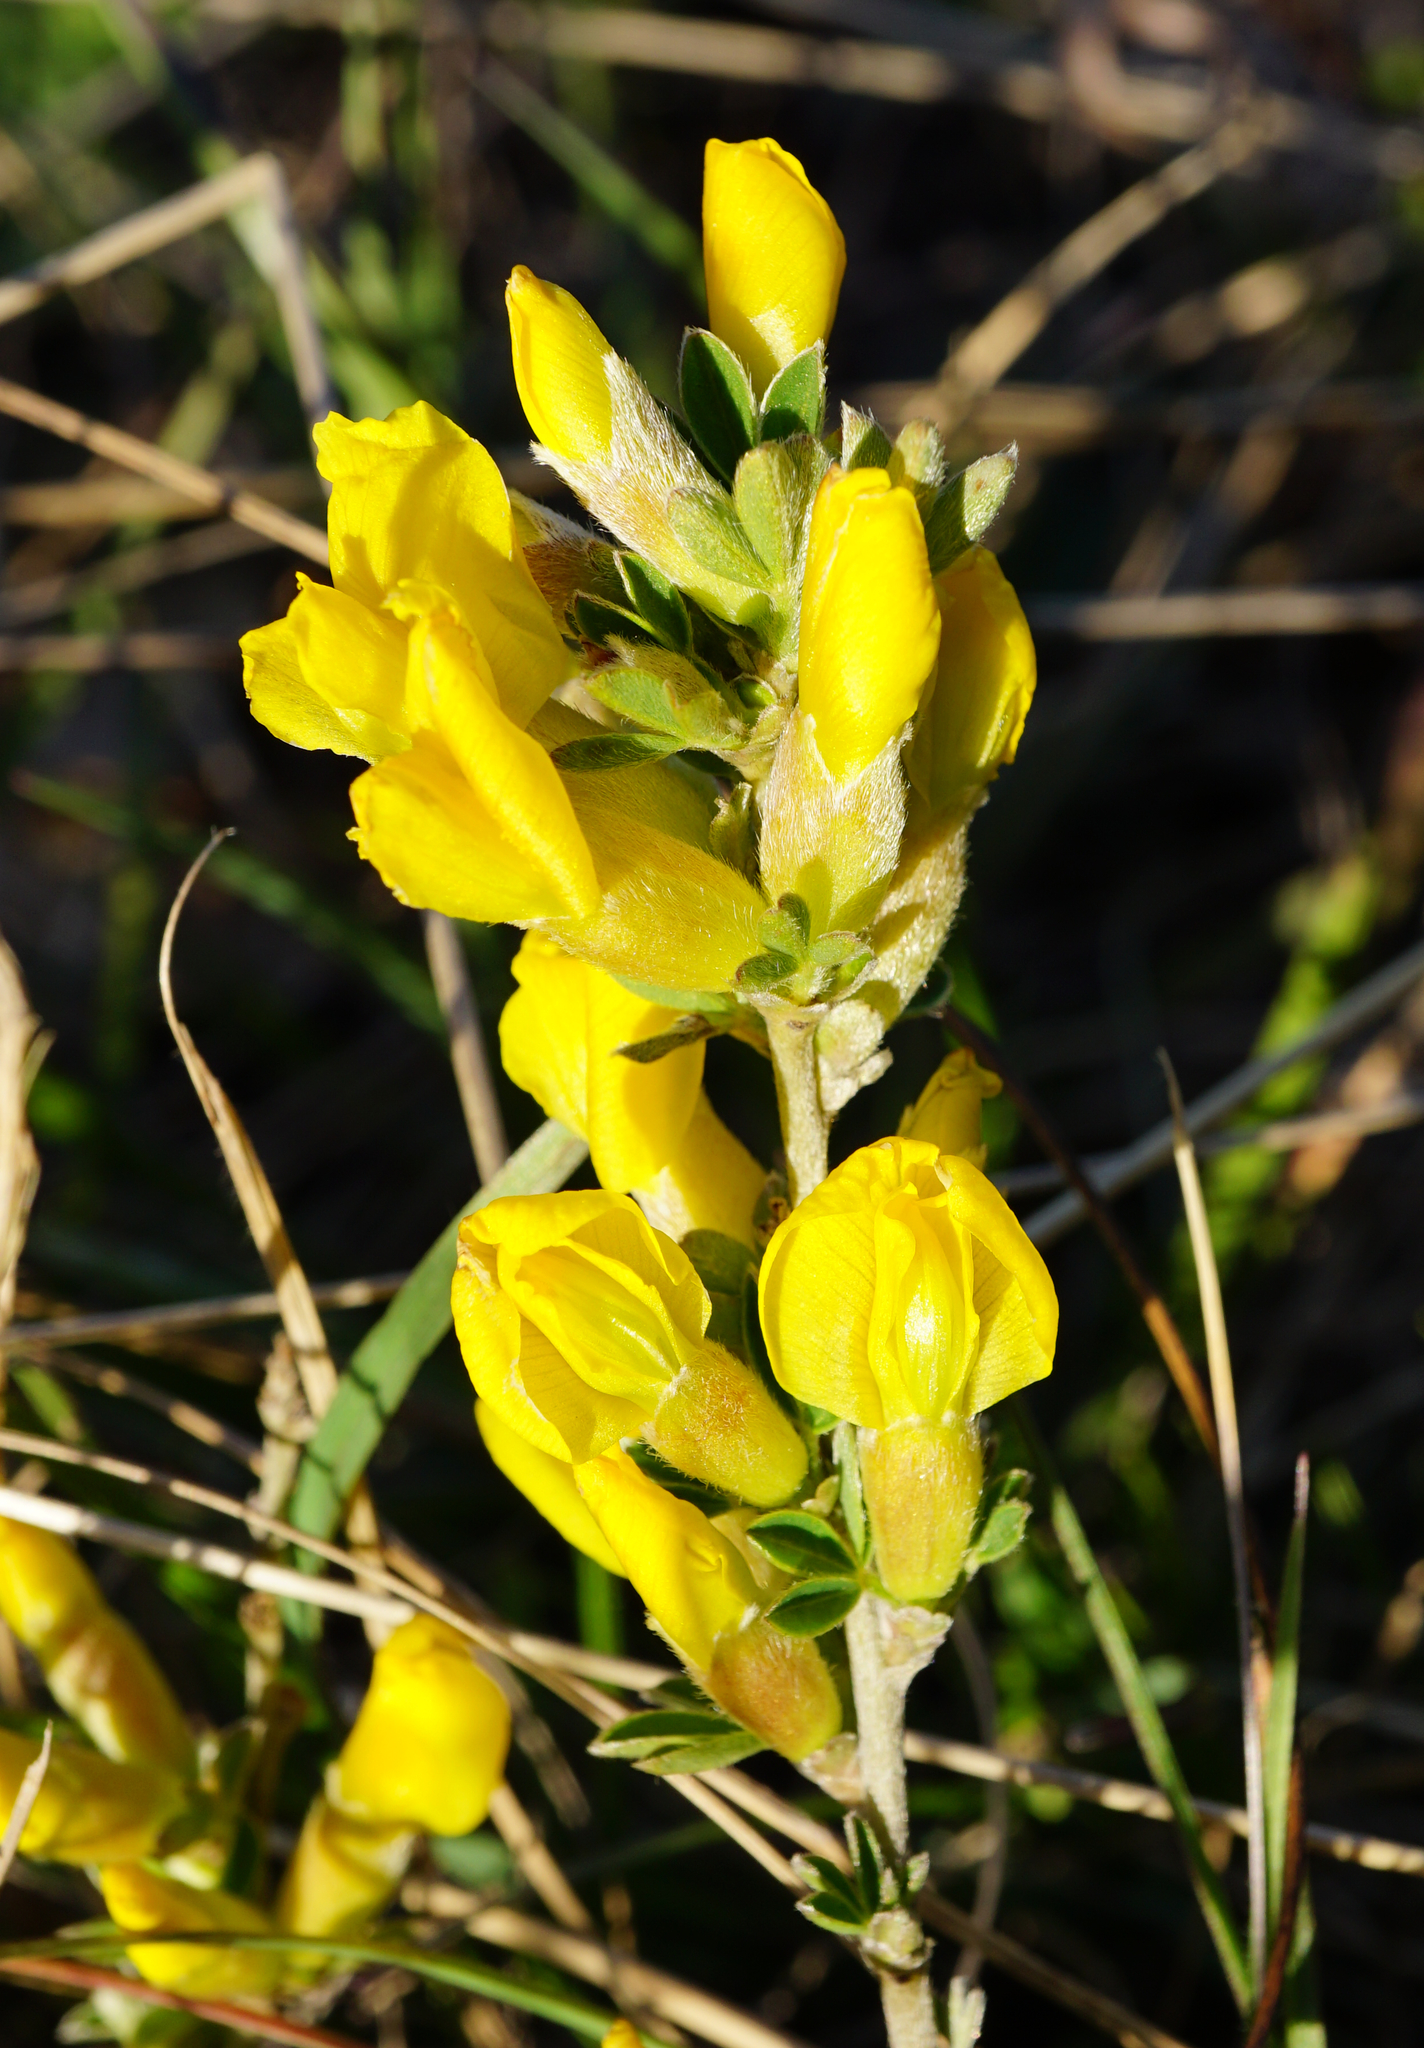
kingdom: Plantae
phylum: Tracheophyta
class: Magnoliopsida
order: Fabales
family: Fabaceae
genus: Chamaecytisus
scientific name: Chamaecytisus ratisbonensis
